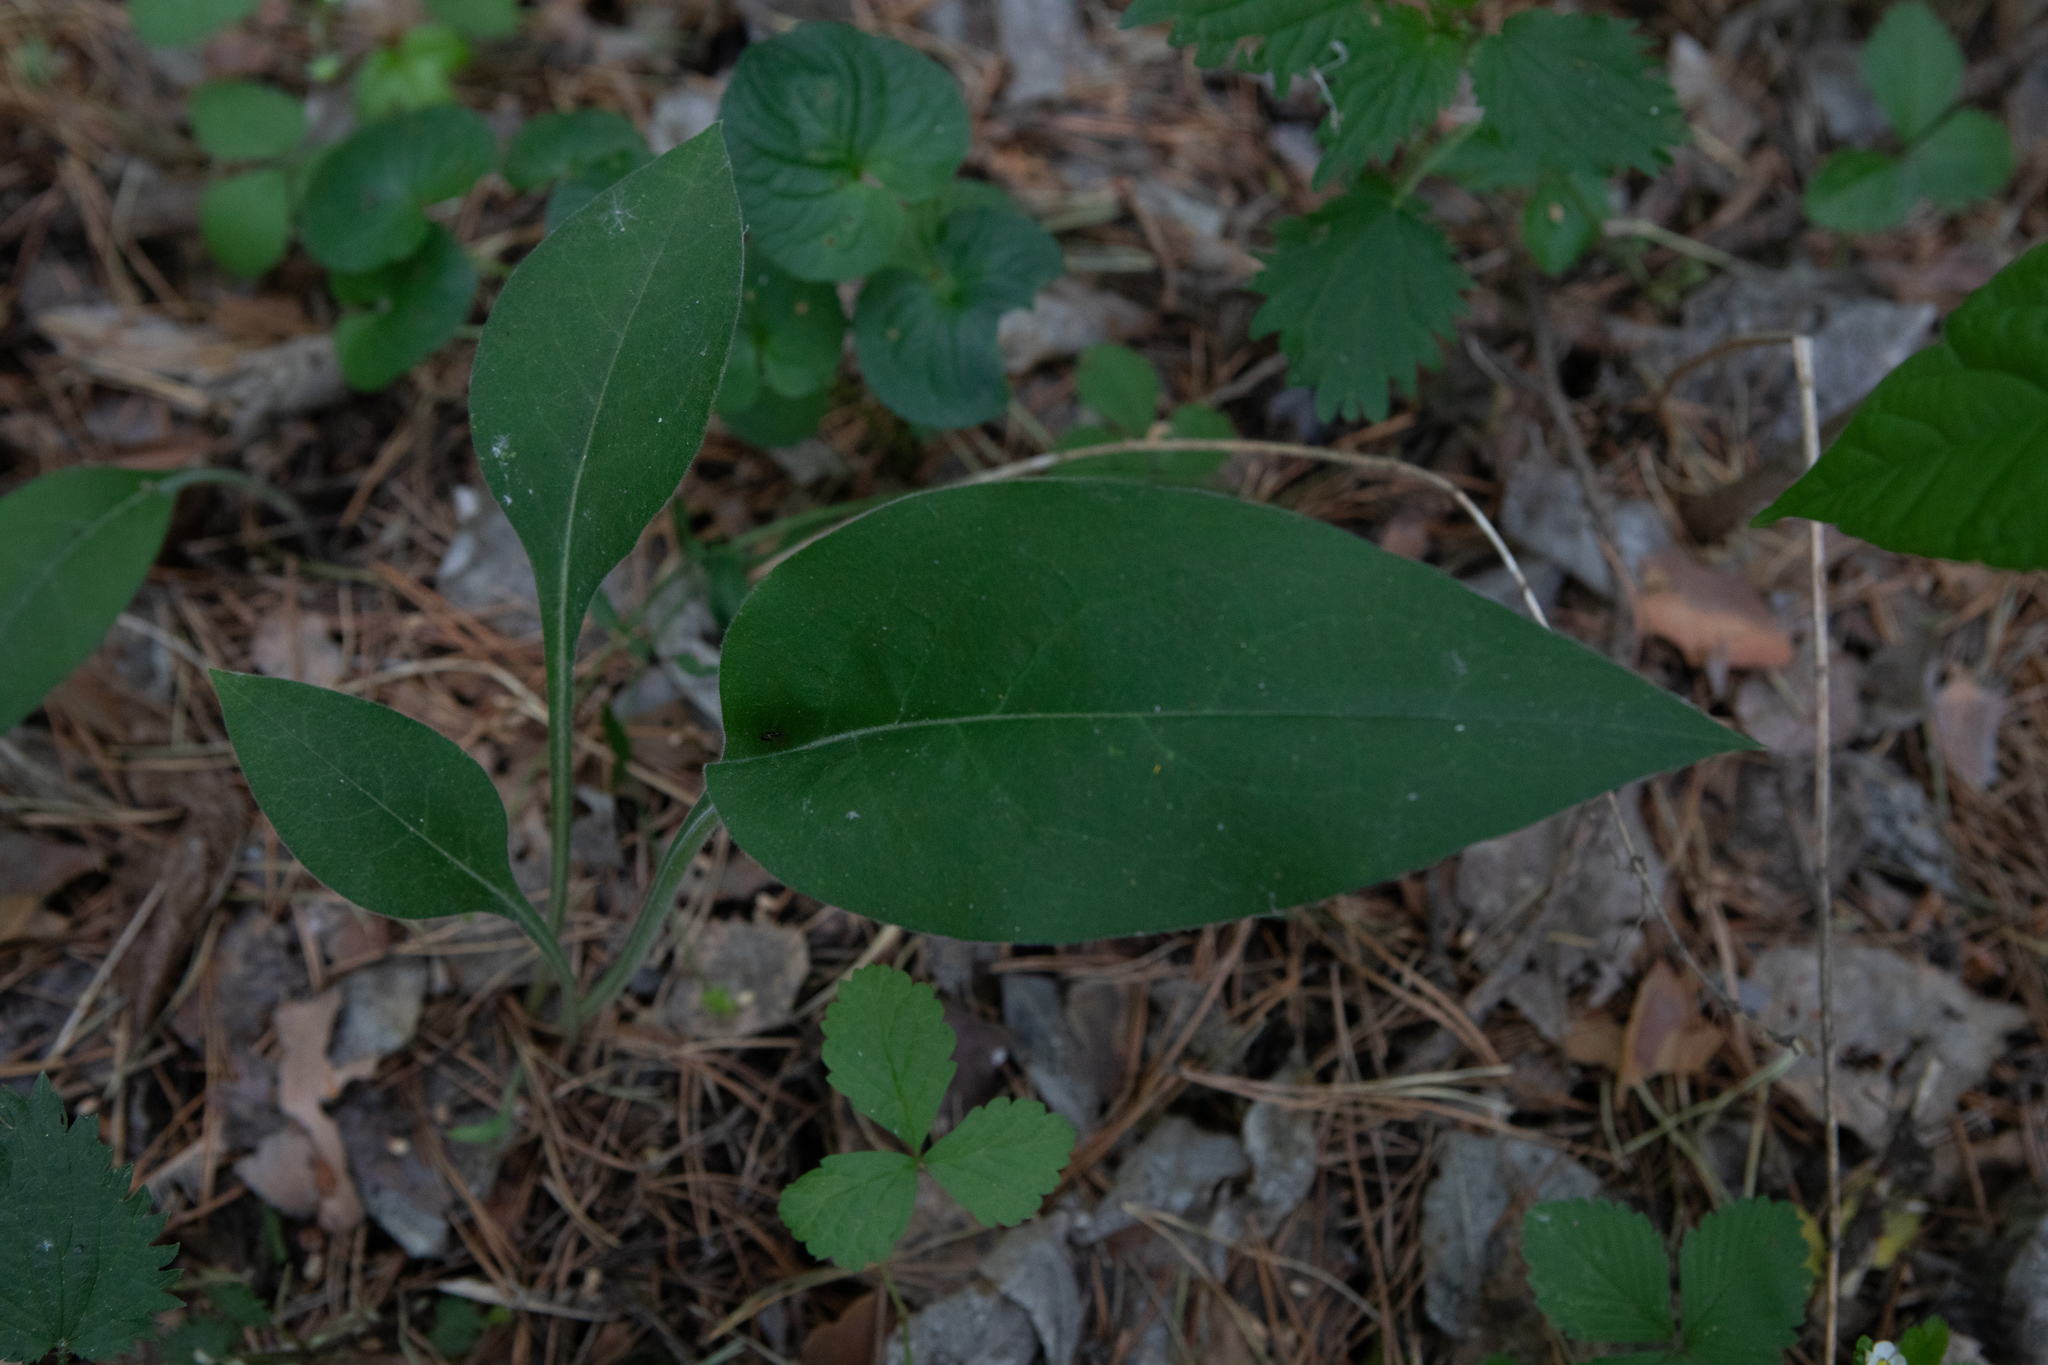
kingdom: Plantae
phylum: Tracheophyta
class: Magnoliopsida
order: Boraginales
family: Boraginaceae
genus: Pulmonaria
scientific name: Pulmonaria mollis
